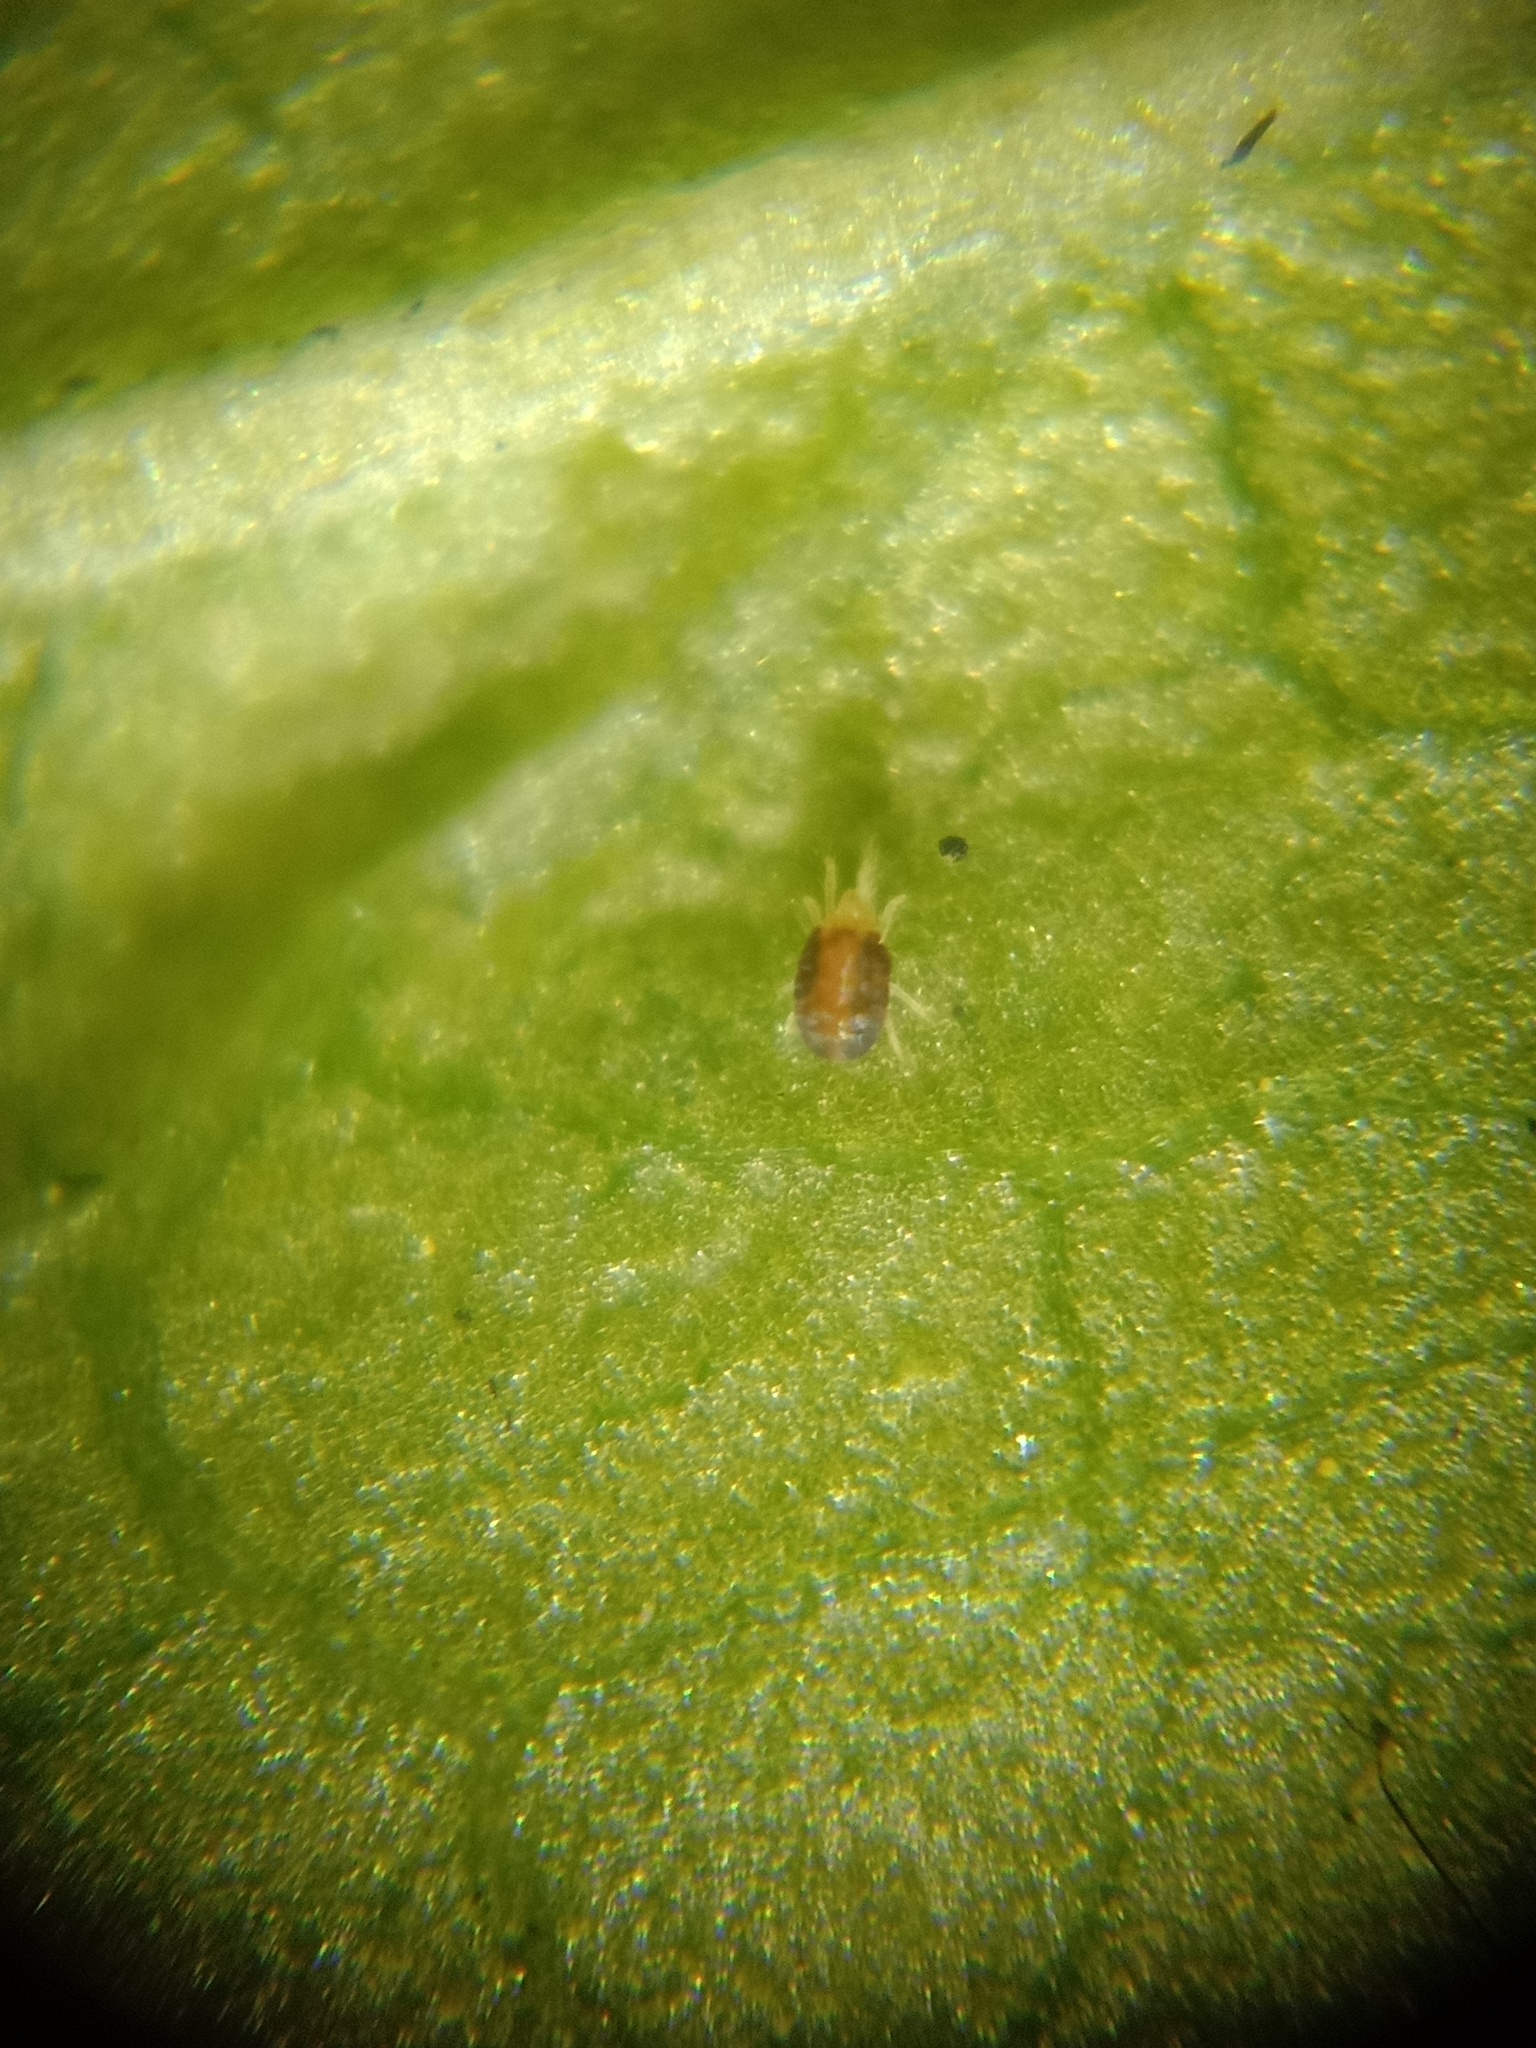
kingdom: Animalia
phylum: Arthropoda
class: Arachnida
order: Trombidiformes
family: Tetranychidae
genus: Tetranychus
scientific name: Tetranychus urticae
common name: Carmine spider mite
